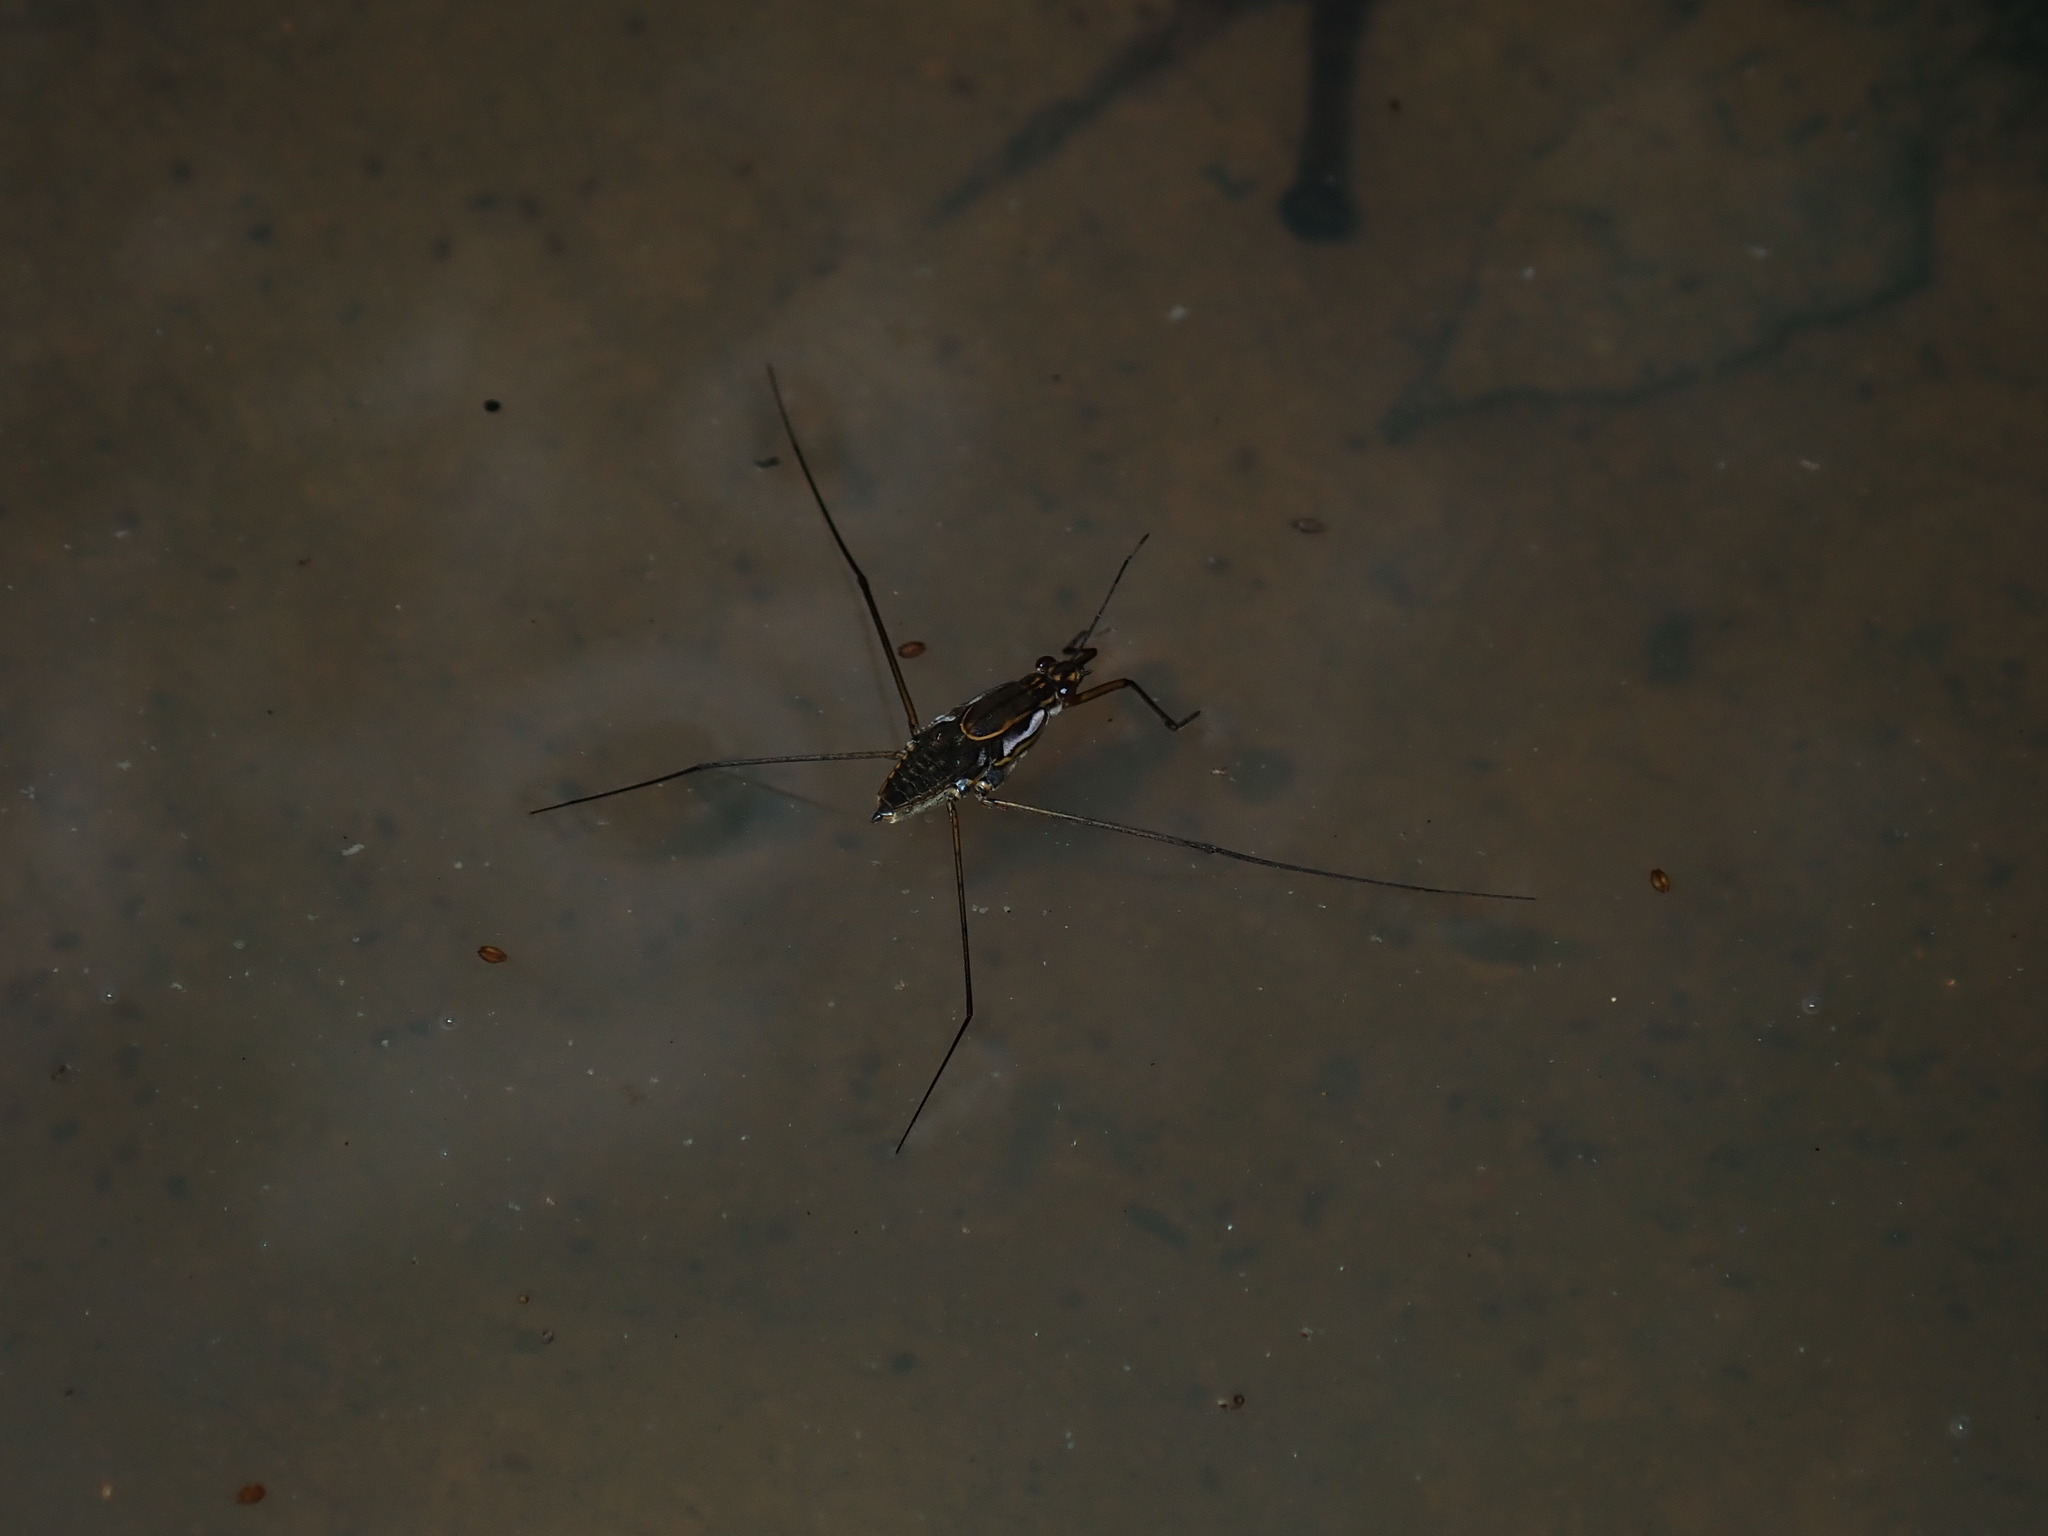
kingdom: Animalia
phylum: Arthropoda
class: Insecta
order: Hemiptera
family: Gerridae
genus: Tenagogerris
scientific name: Tenagogerris
